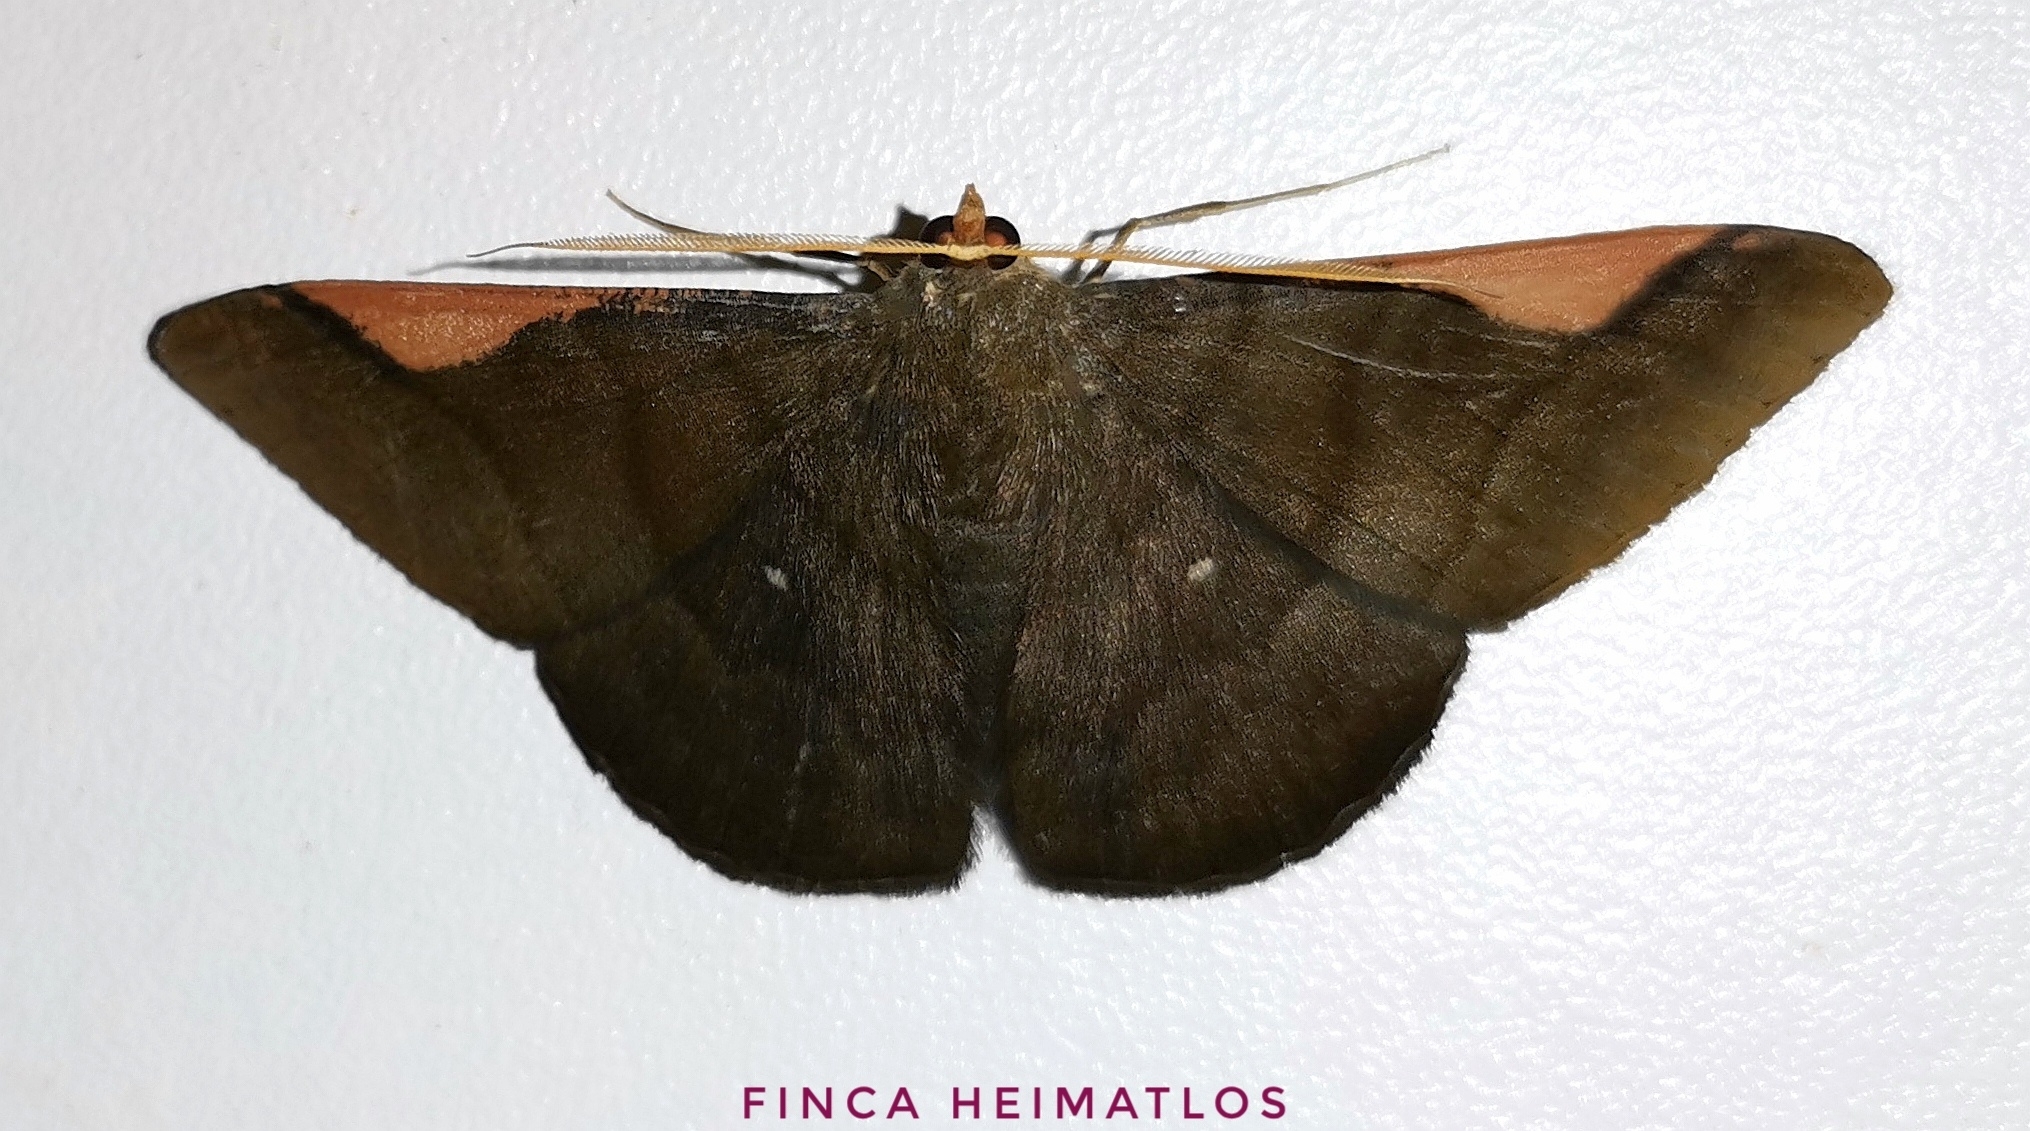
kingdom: Animalia
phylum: Arthropoda
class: Insecta
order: Lepidoptera
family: Geometridae
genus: Sphacelodes
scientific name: Sphacelodes vulneraria
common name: Looper moth
